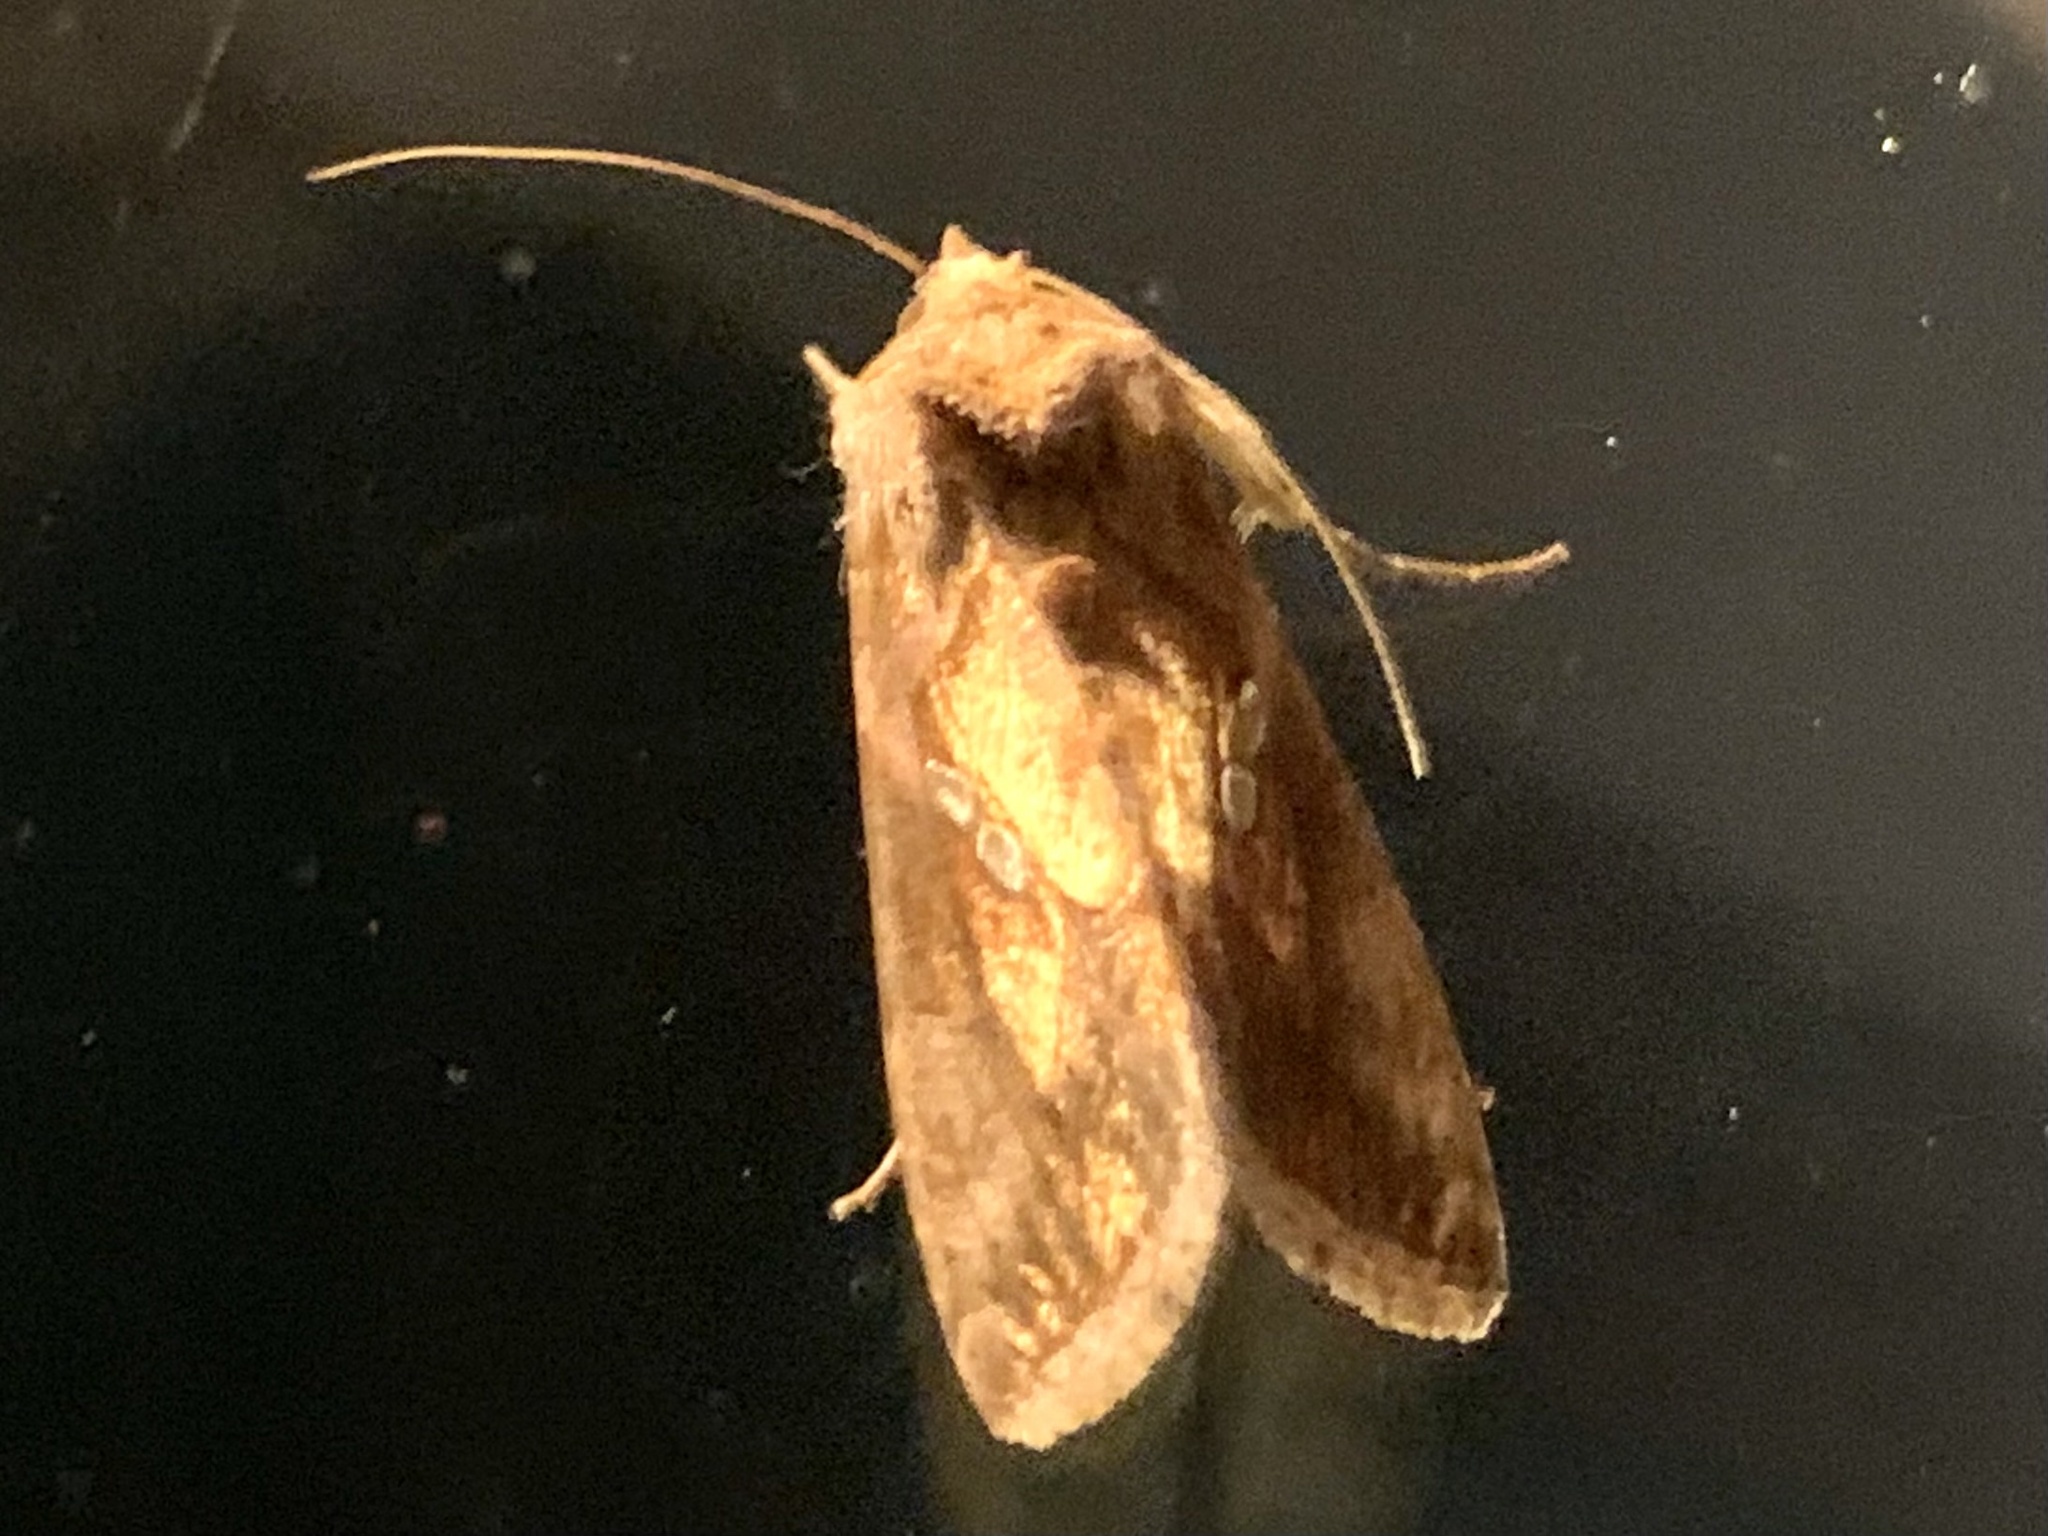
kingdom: Animalia
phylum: Arthropoda
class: Insecta
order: Lepidoptera
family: Noctuidae
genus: Chrysodeixis
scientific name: Chrysodeixis chalcites
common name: Golden twin-spot
